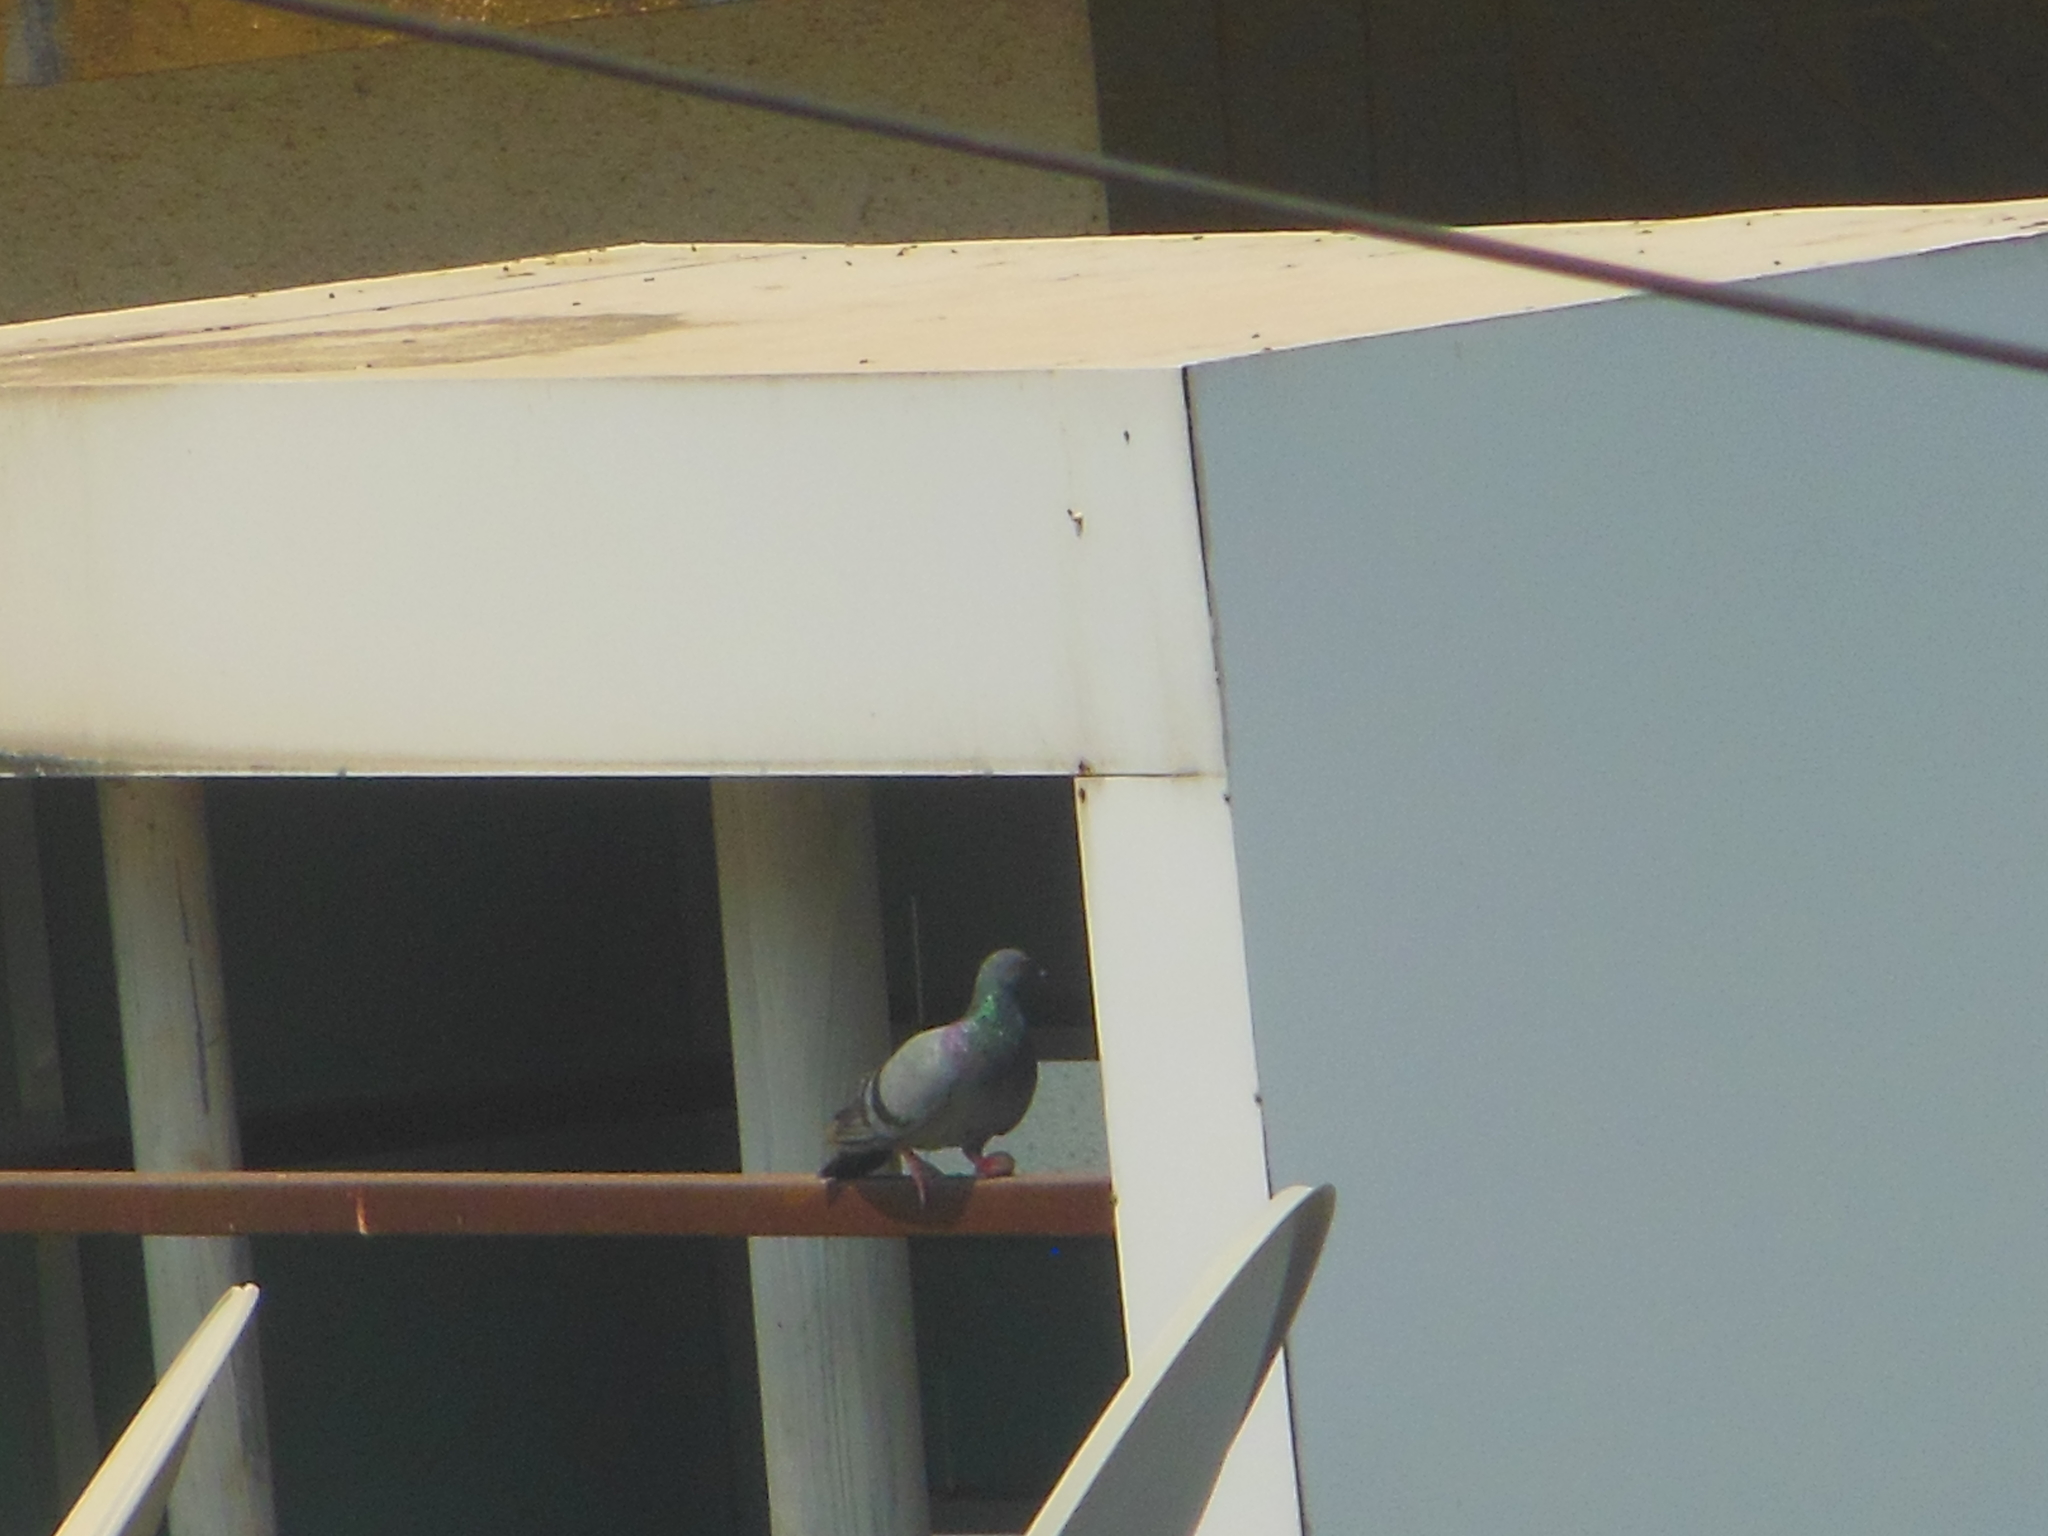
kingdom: Animalia
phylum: Chordata
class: Aves
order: Columbiformes
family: Columbidae
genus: Columba
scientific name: Columba livia
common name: Rock pigeon
